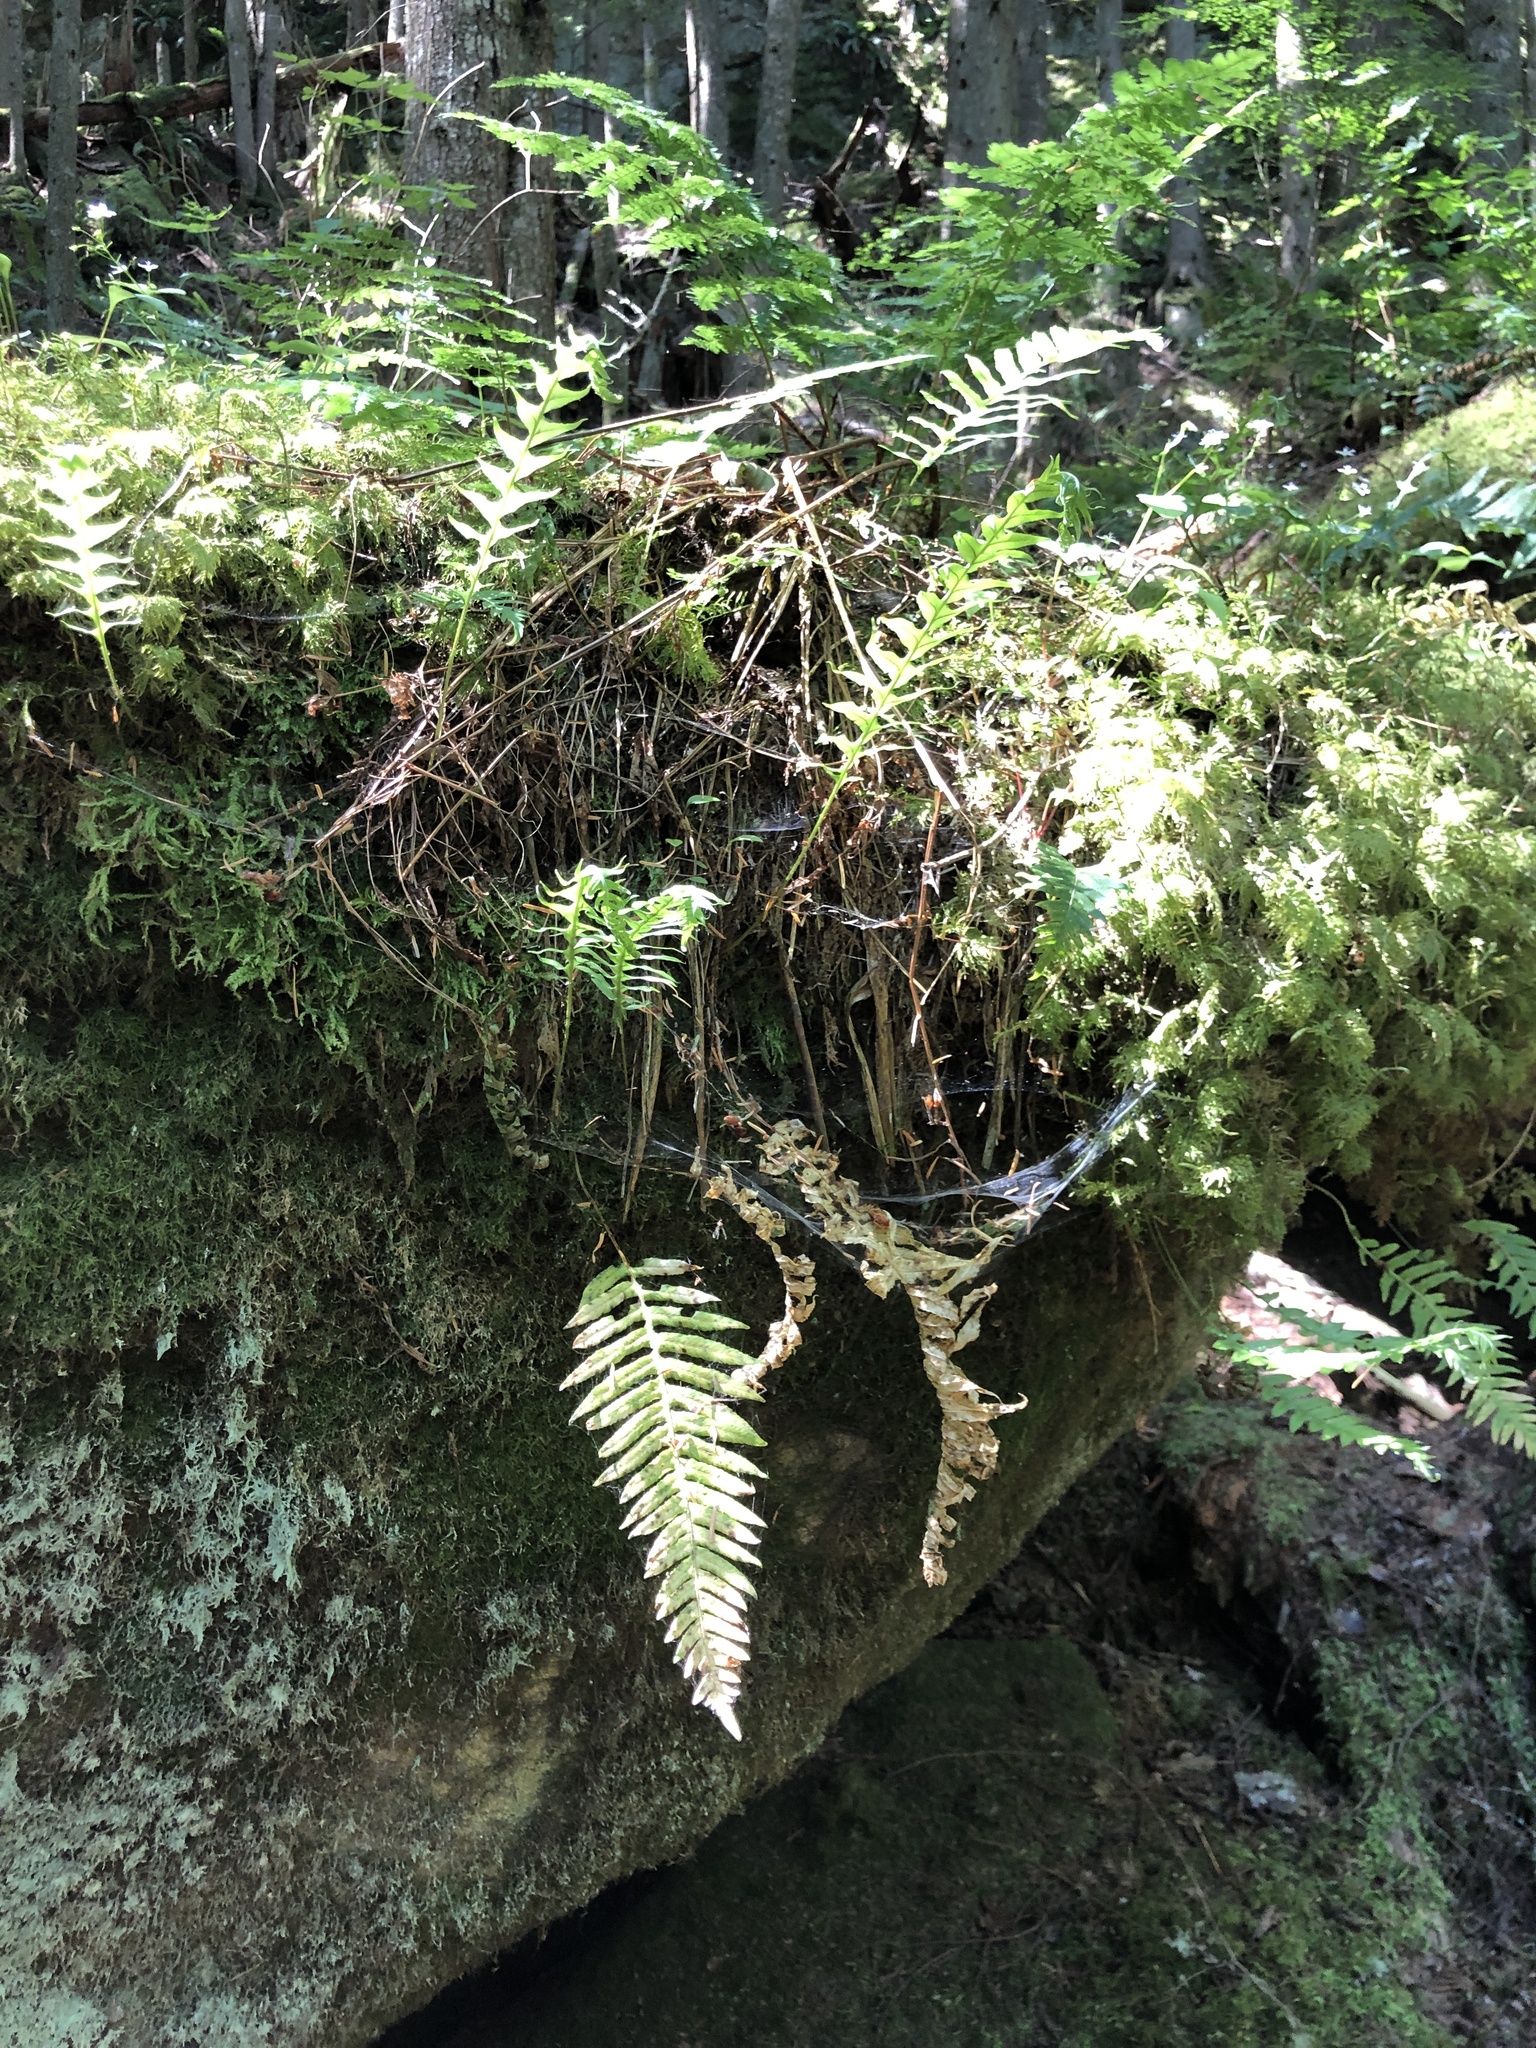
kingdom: Plantae
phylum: Tracheophyta
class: Polypodiopsida
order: Polypodiales
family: Polypodiaceae
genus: Polypodium
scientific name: Polypodium glycyrrhiza
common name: Licorice fern
